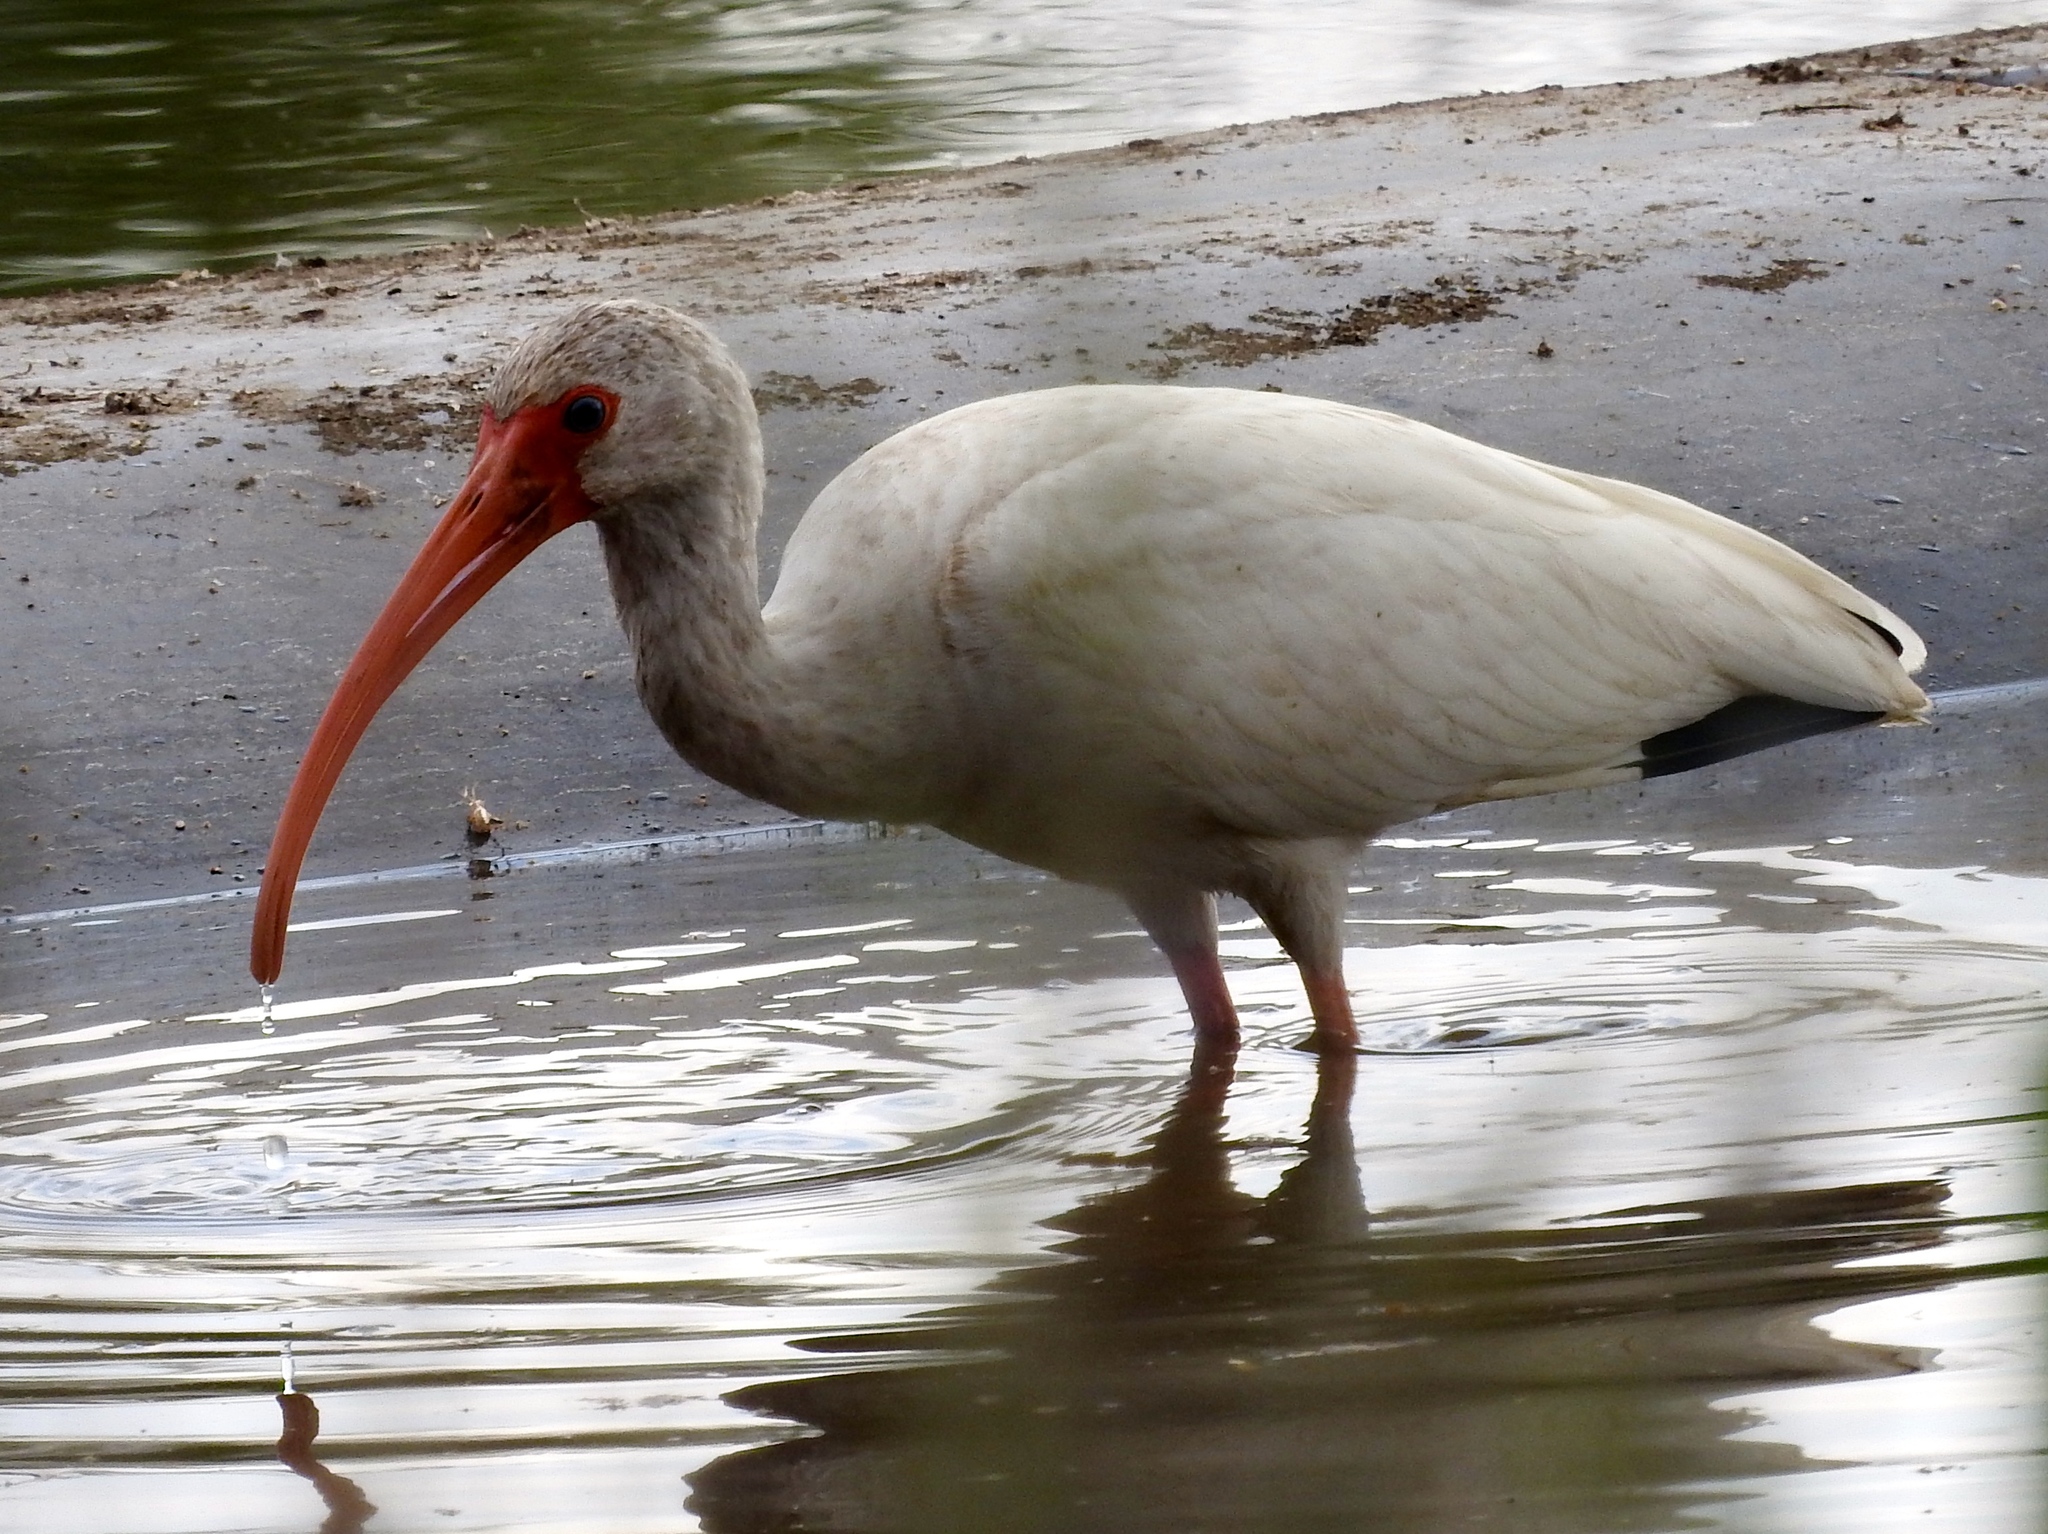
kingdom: Animalia
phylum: Chordata
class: Aves
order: Pelecaniformes
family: Threskiornithidae
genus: Eudocimus
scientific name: Eudocimus albus
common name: White ibis
